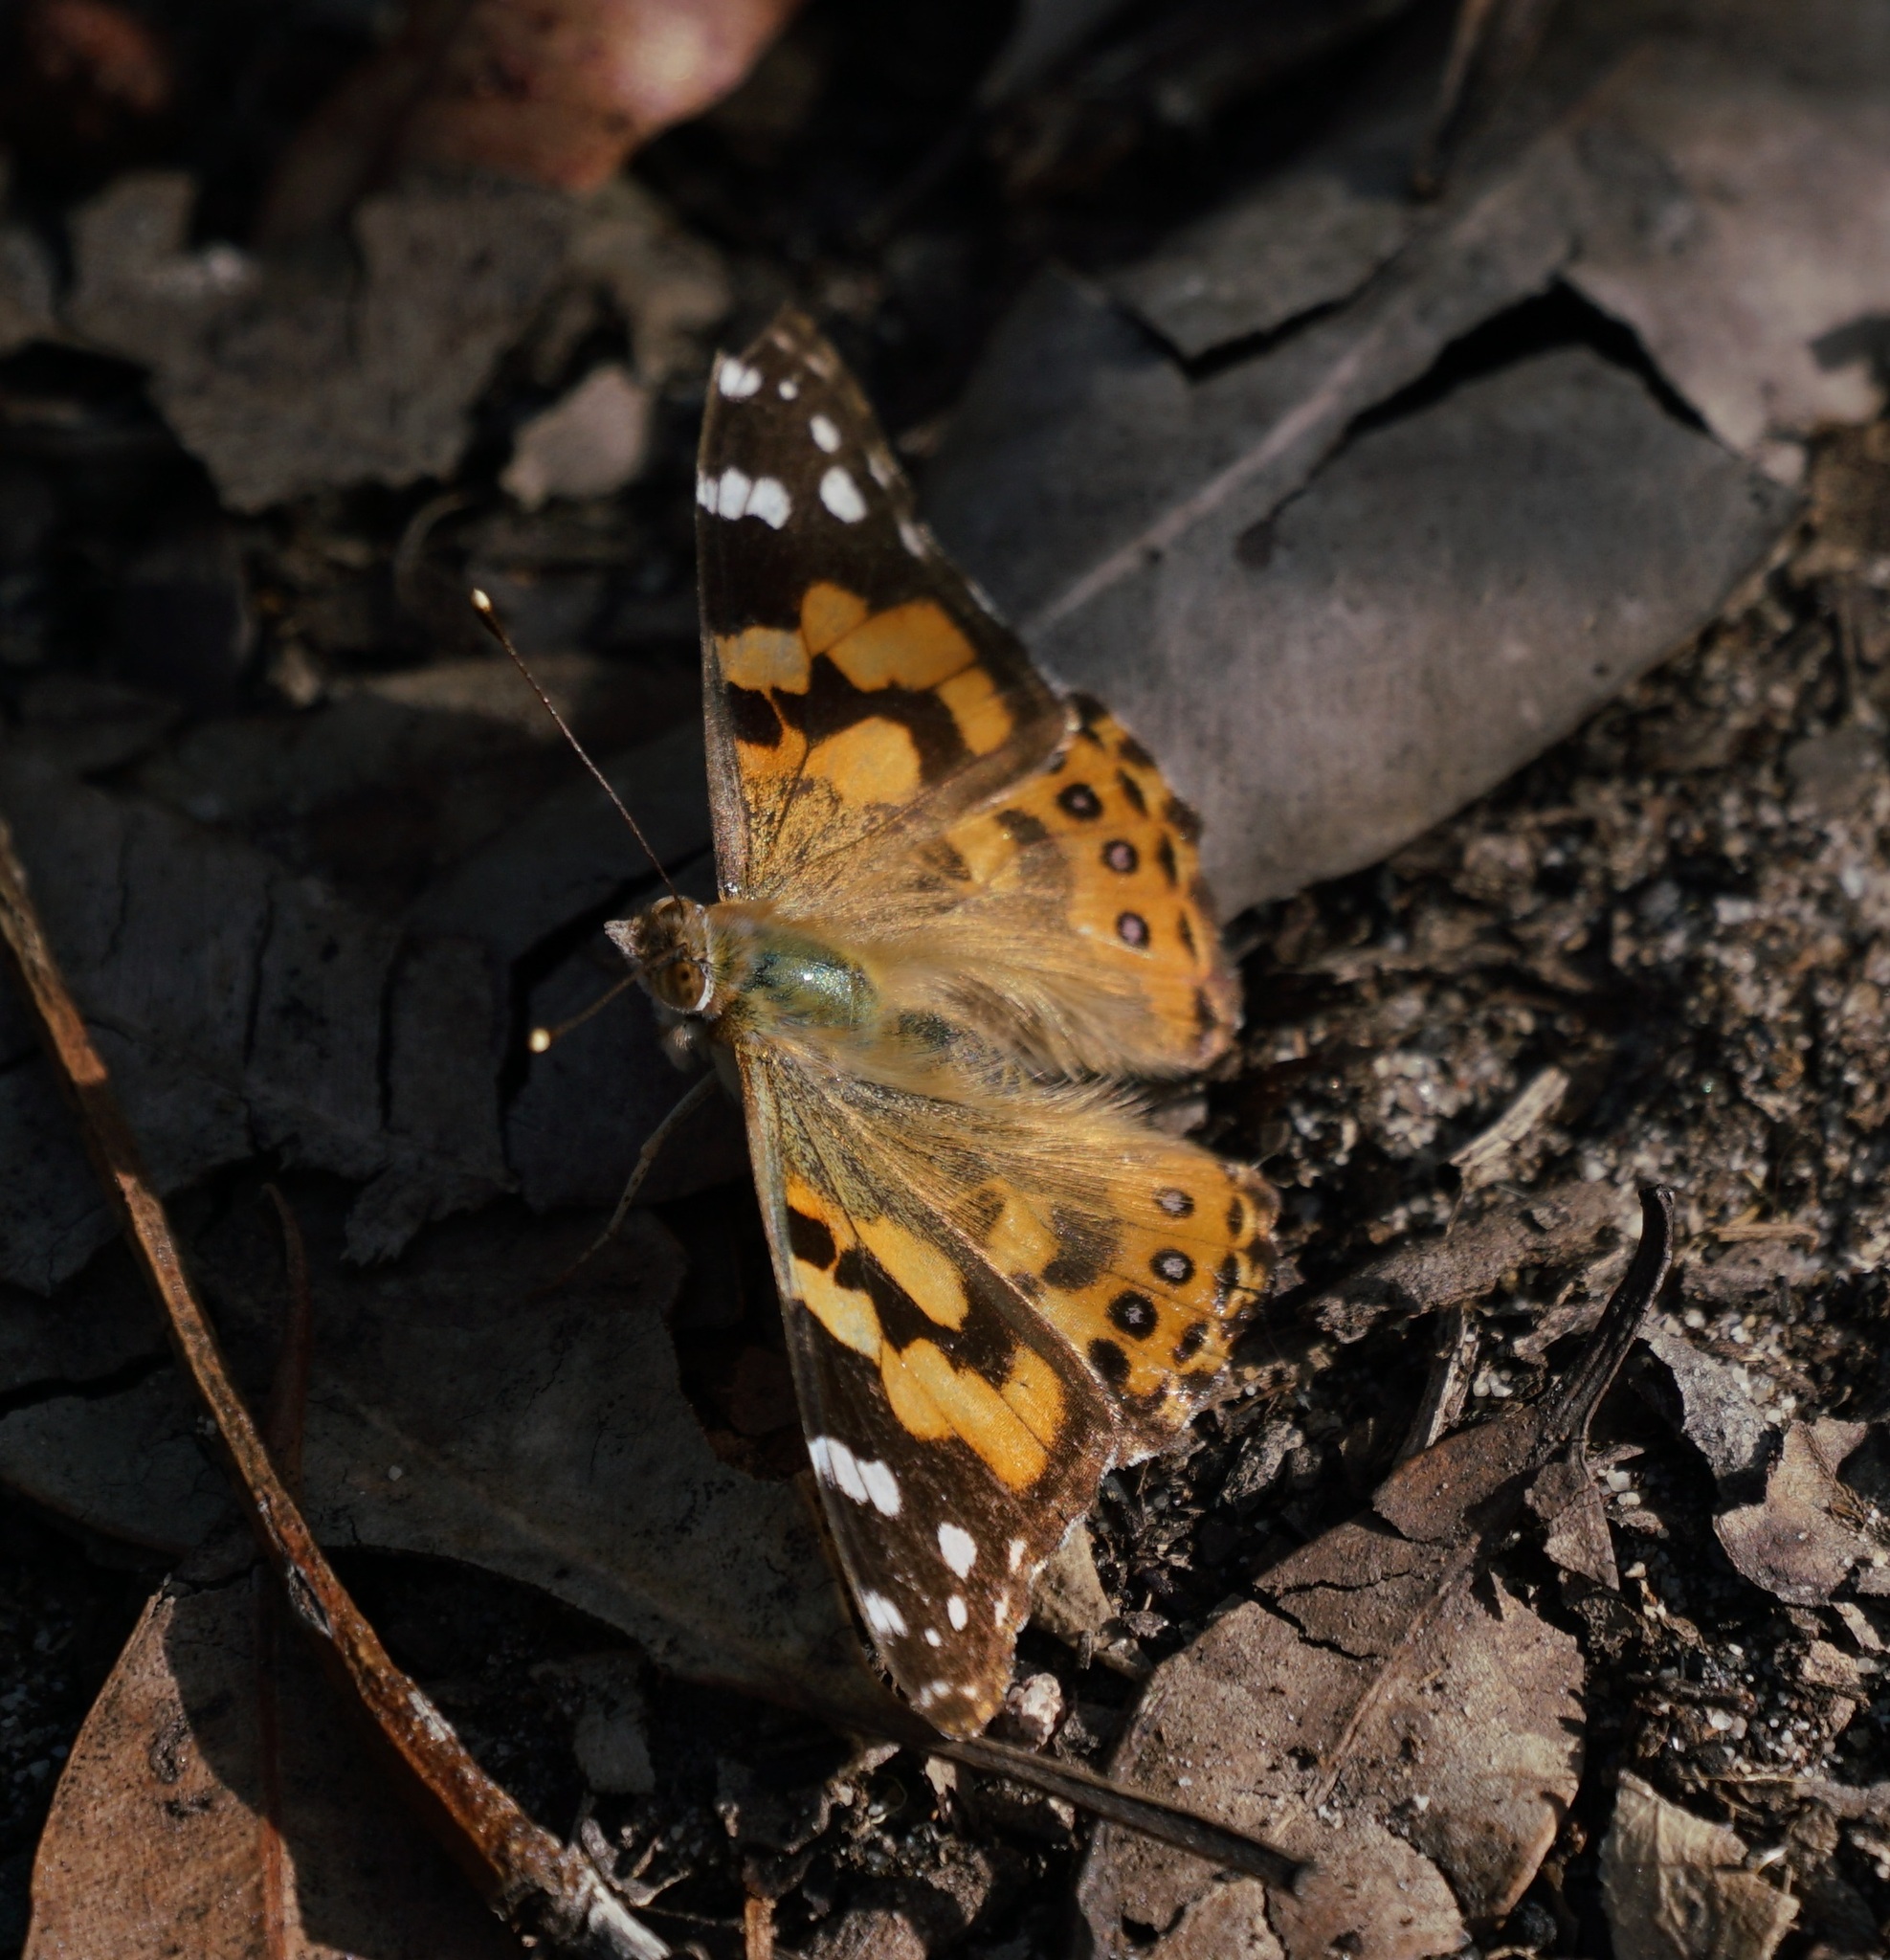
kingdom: Animalia
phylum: Arthropoda
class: Insecta
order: Lepidoptera
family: Nymphalidae
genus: Vanessa
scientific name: Vanessa kershawi
